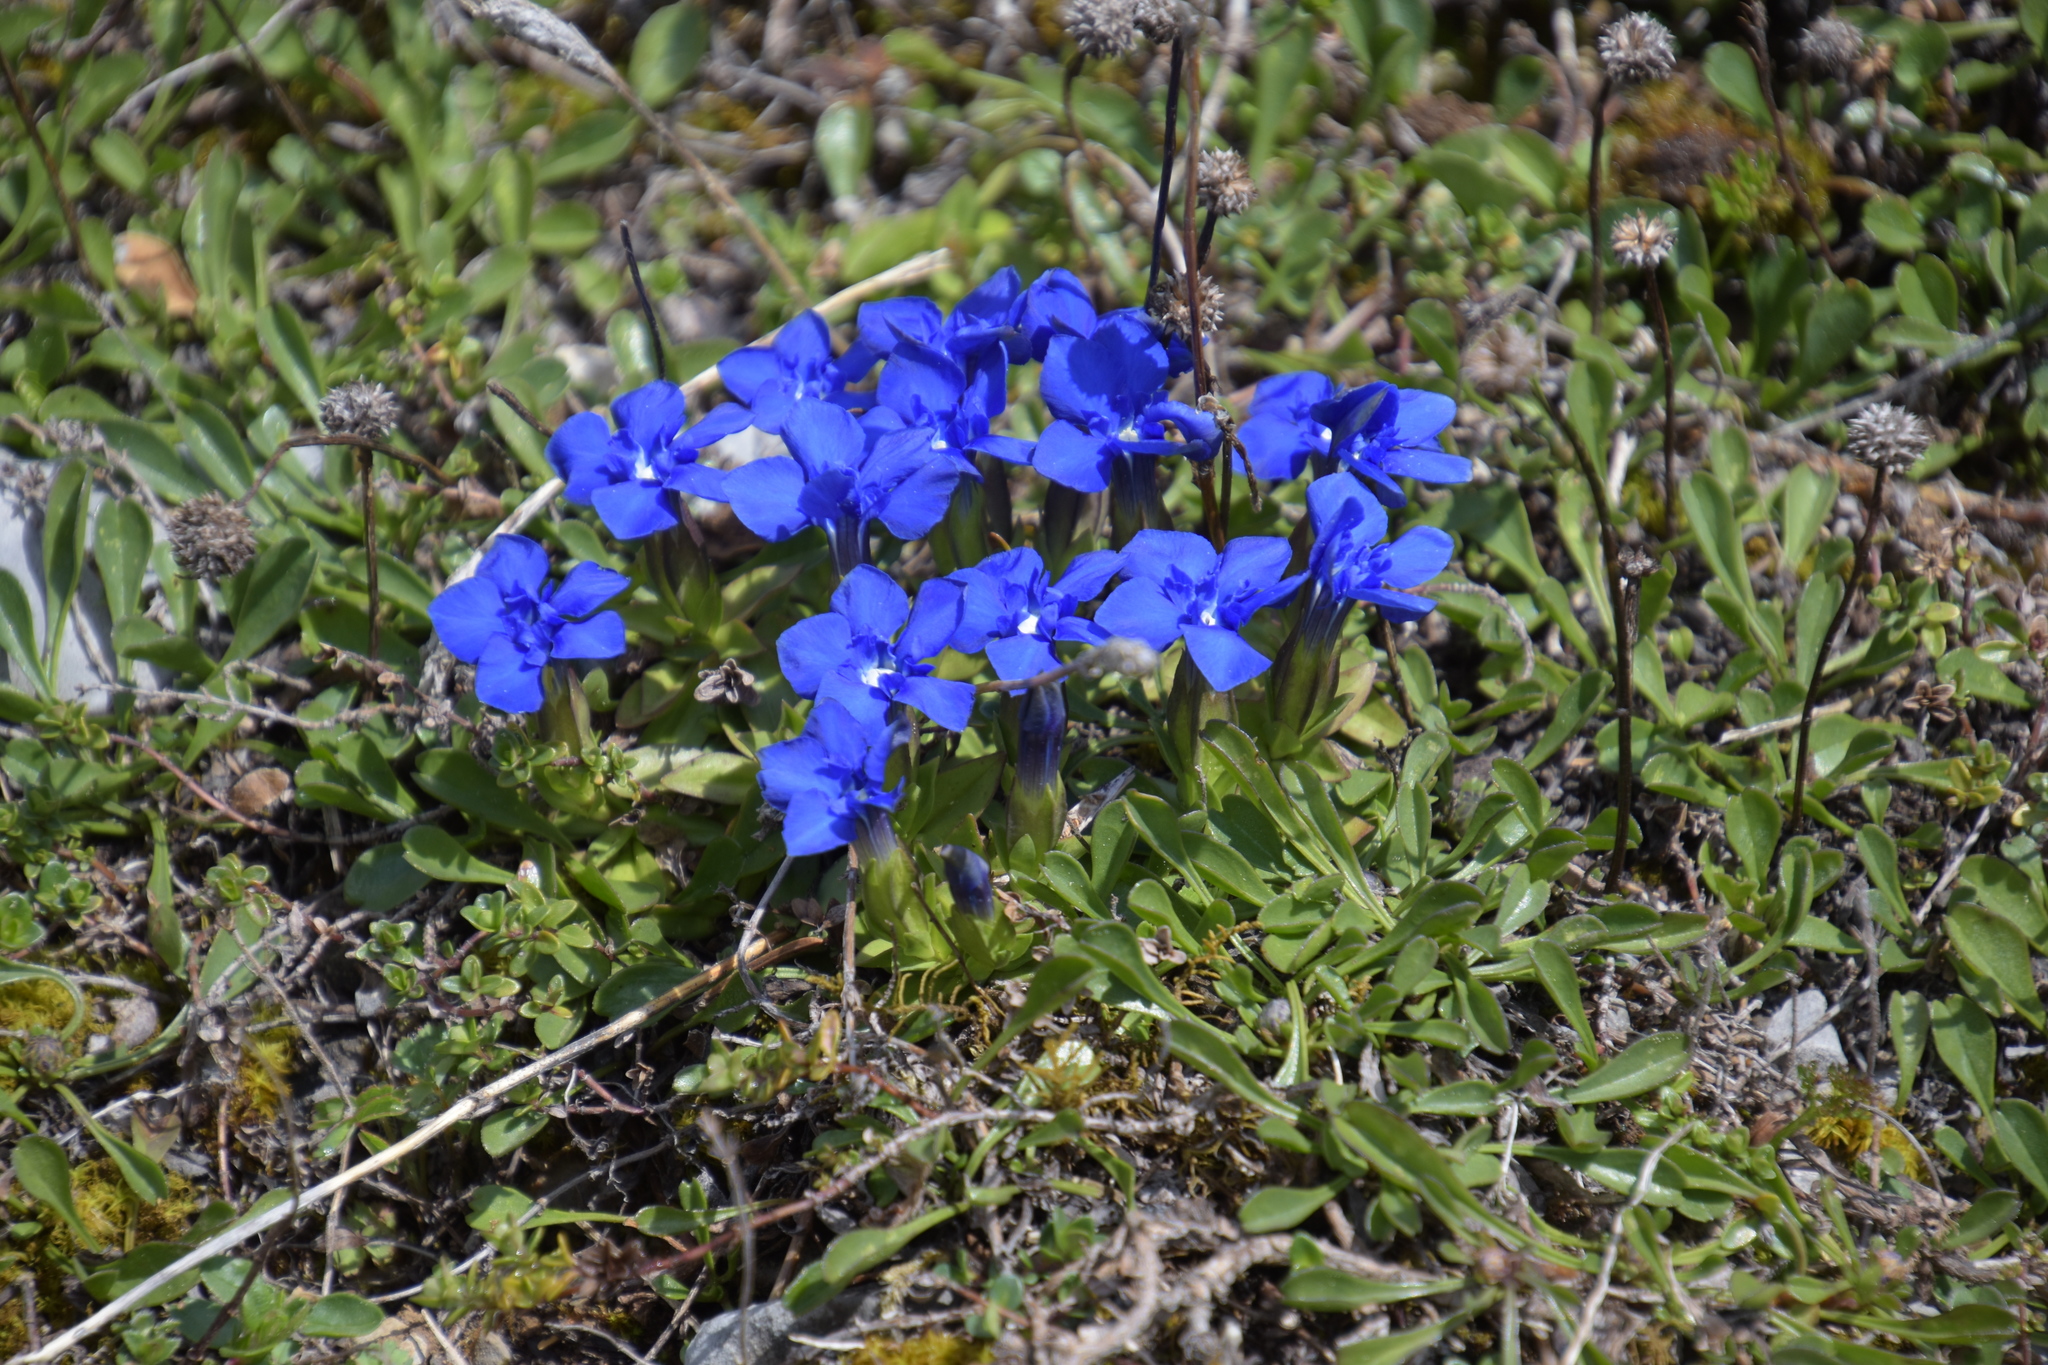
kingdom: Plantae
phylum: Tracheophyta
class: Magnoliopsida
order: Gentianales
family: Gentianaceae
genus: Gentiana
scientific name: Gentiana verna
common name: Spring gentian
